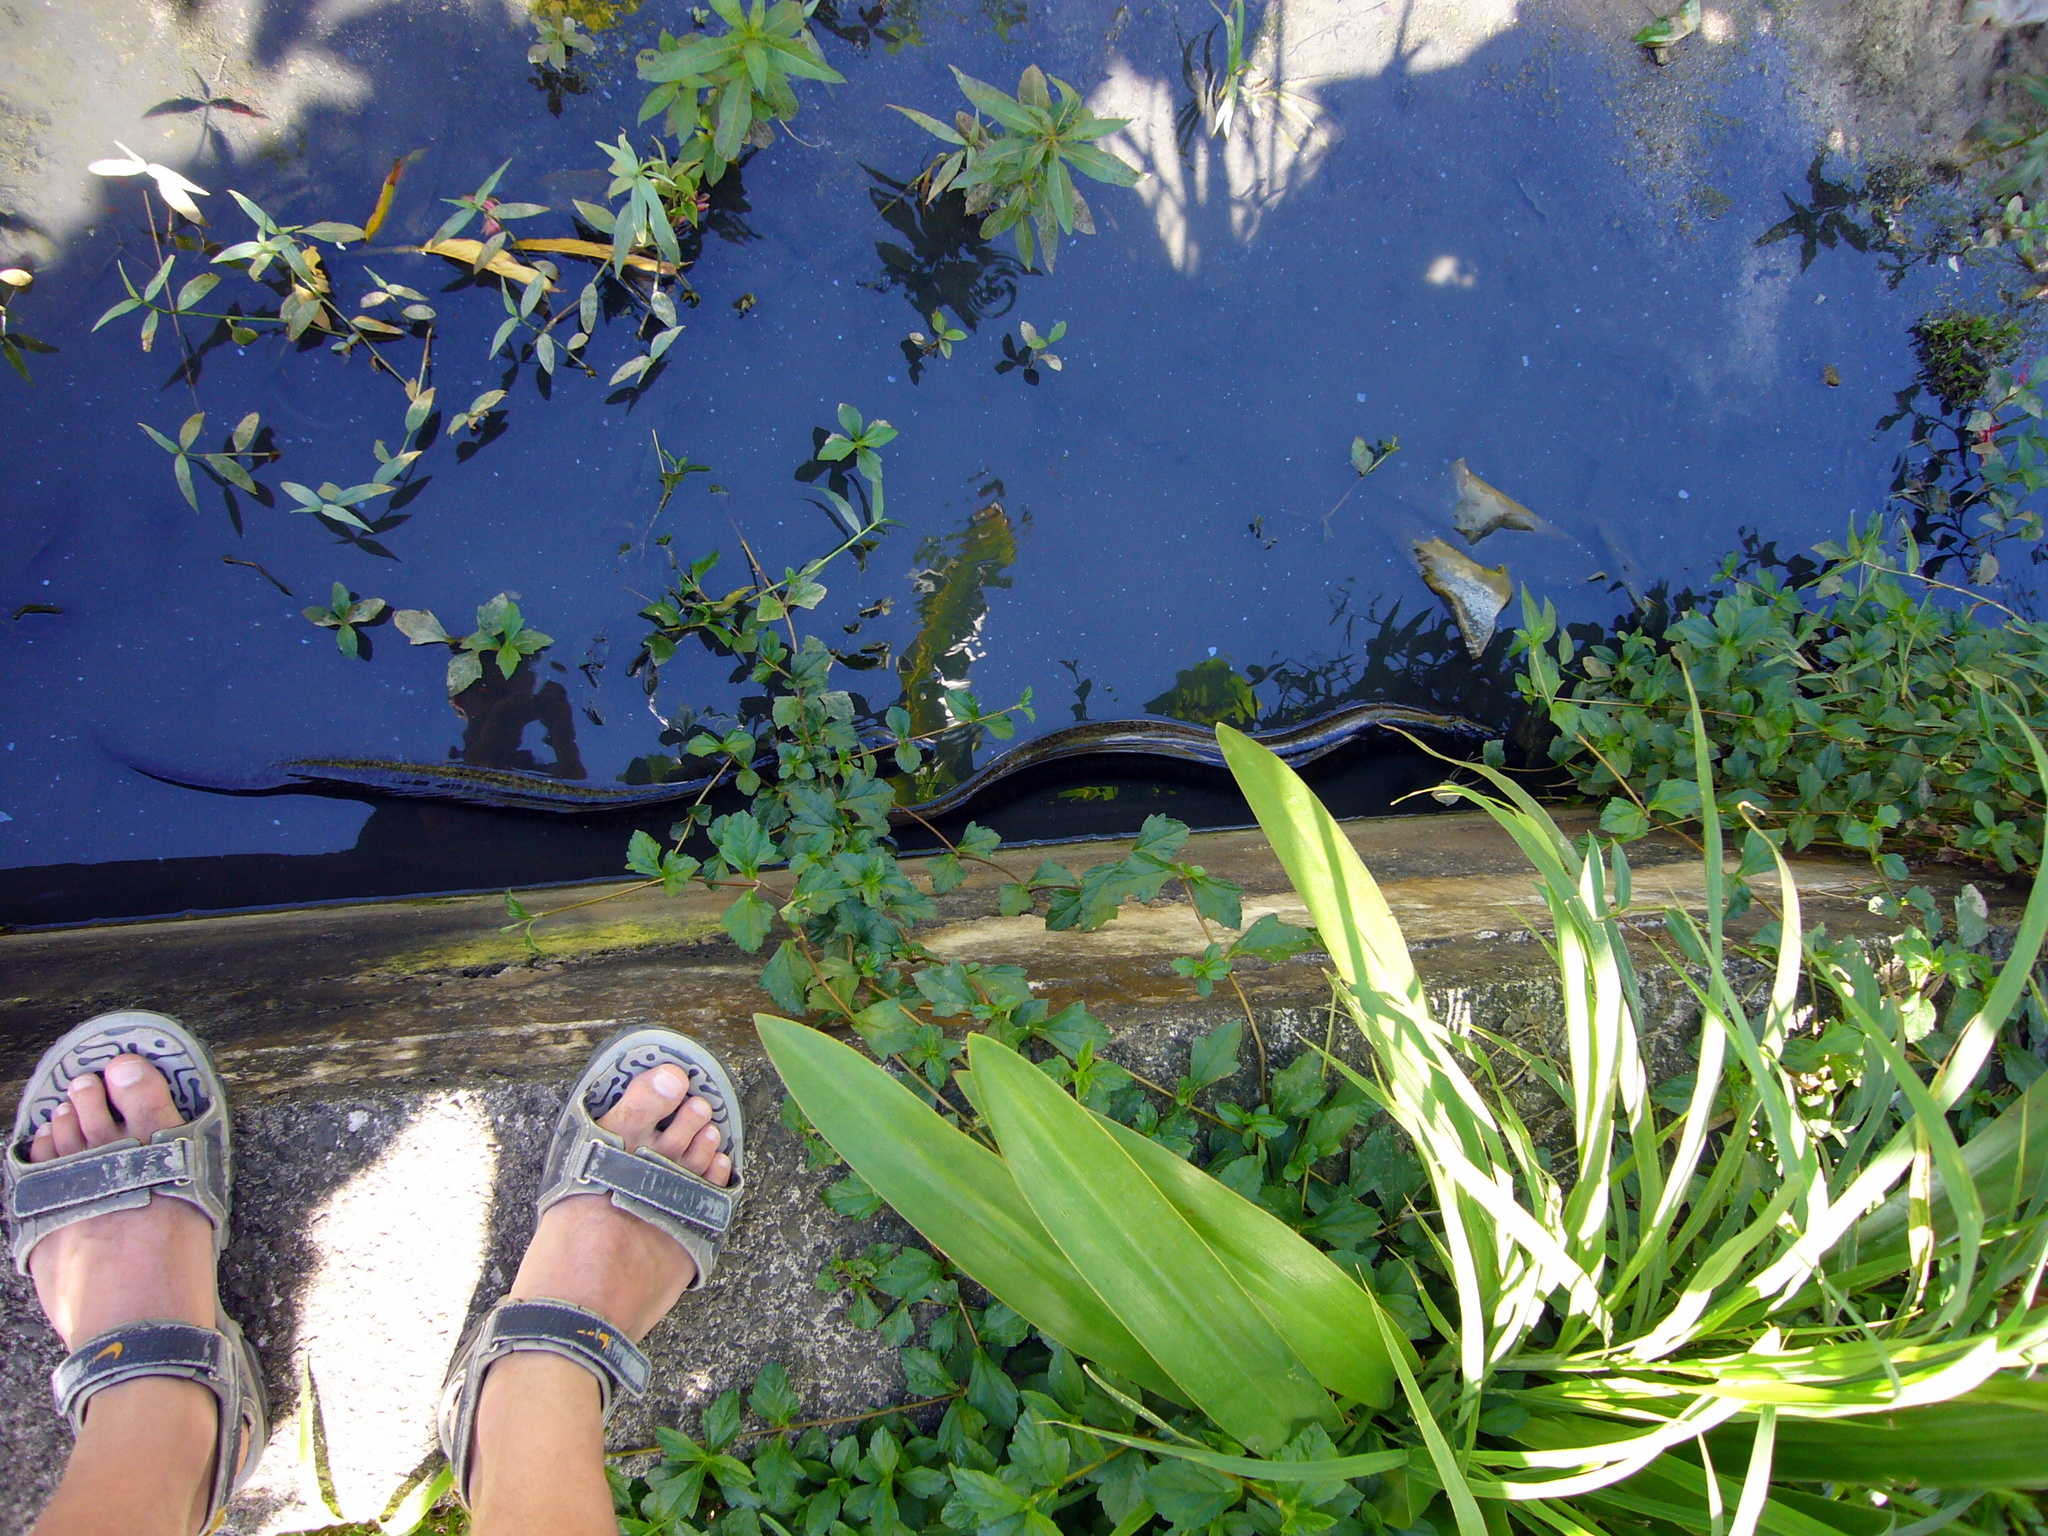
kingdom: Animalia
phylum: Chordata
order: Anguilliformes
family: Anguillidae
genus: Anguilla
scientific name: Anguilla marmorata
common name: Giant mottled eel
